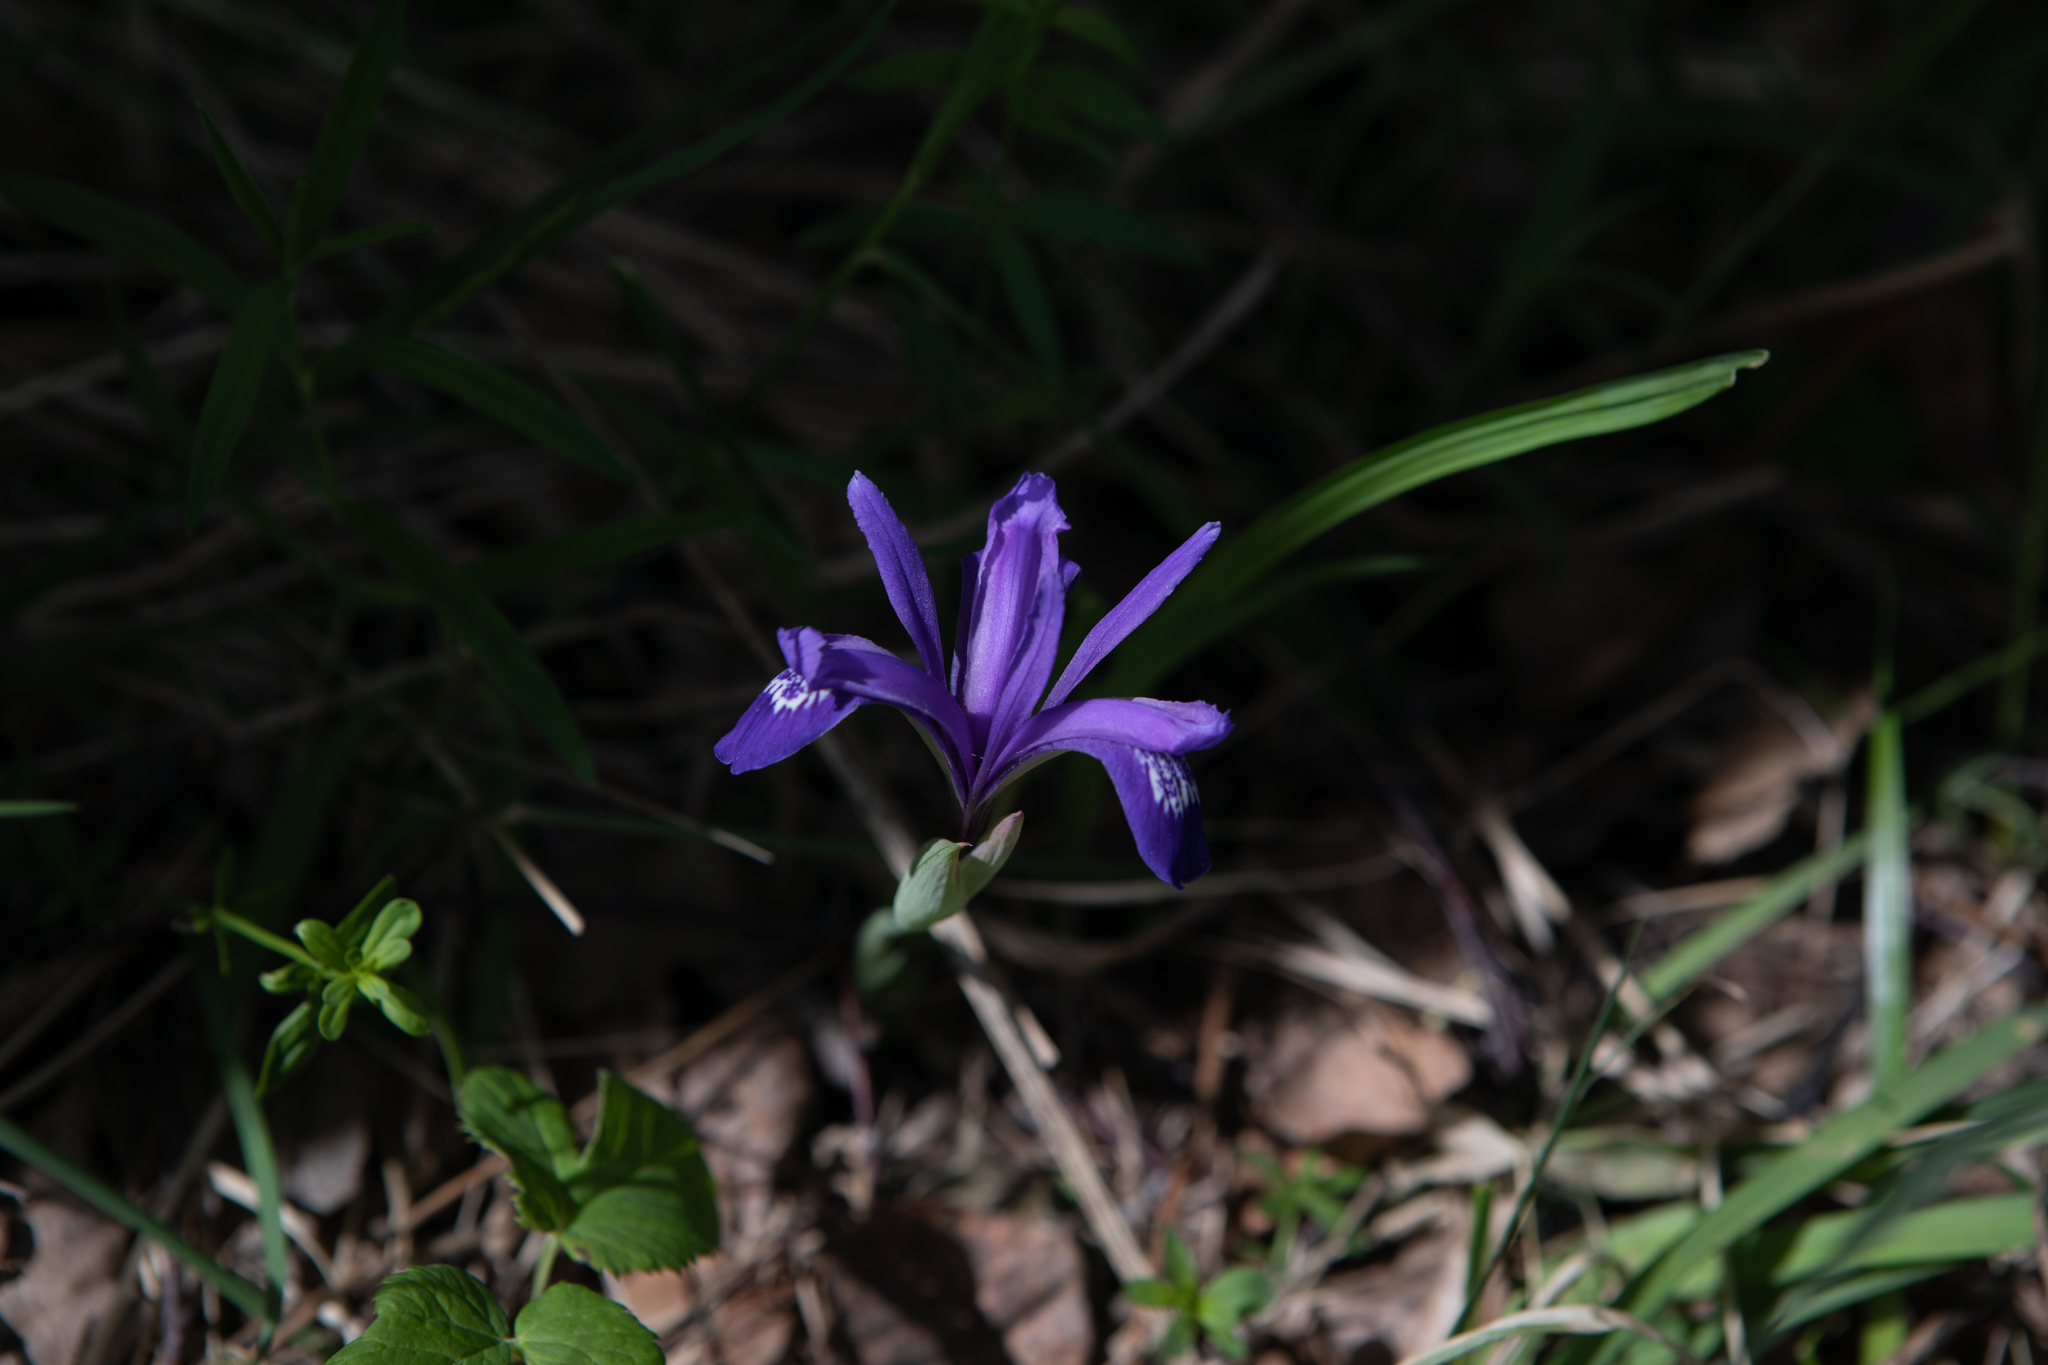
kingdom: Plantae
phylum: Tracheophyta
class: Liliopsida
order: Asparagales
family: Iridaceae
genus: Iris
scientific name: Iris ruthenica
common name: Purple-bract iris
